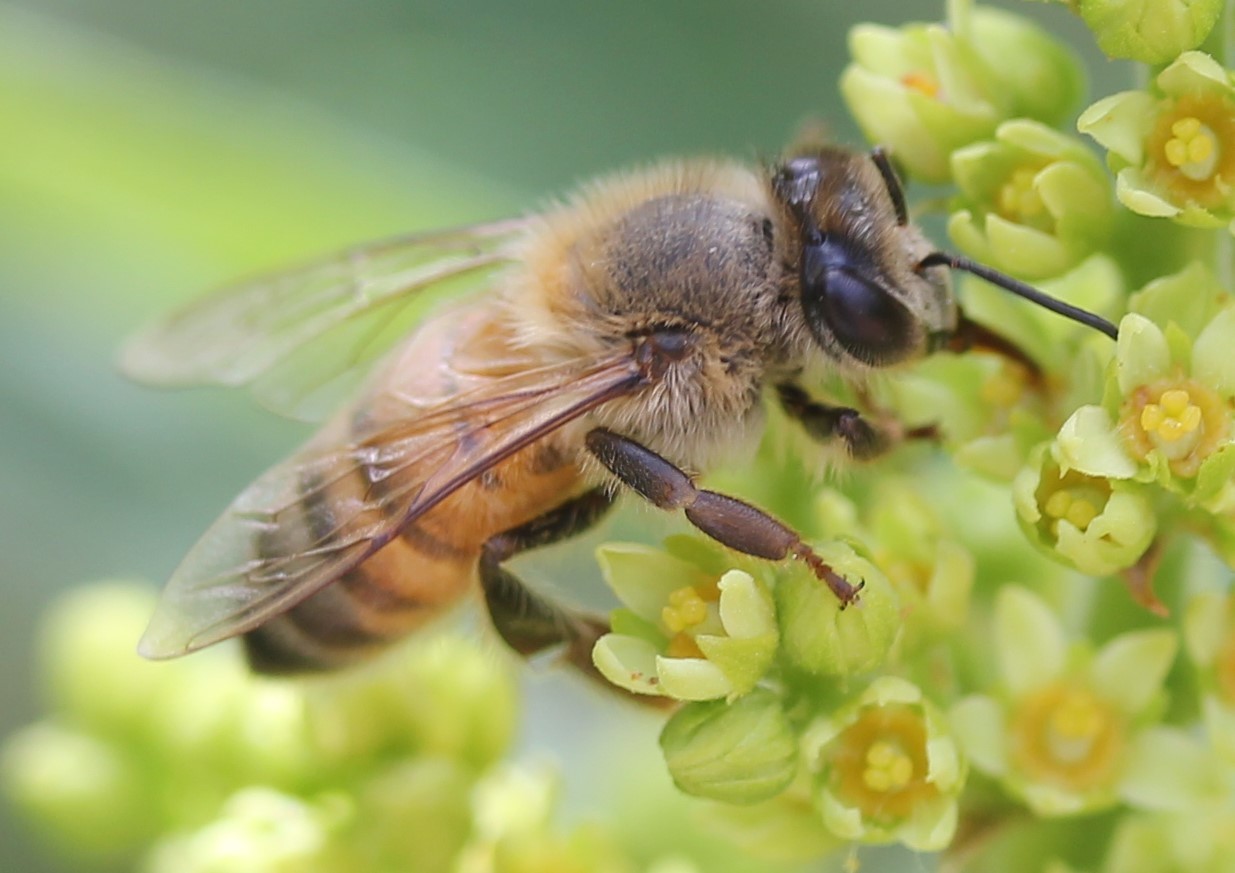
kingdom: Animalia
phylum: Arthropoda
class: Insecta
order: Hymenoptera
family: Apidae
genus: Apis
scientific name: Apis mellifera
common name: Honey bee
